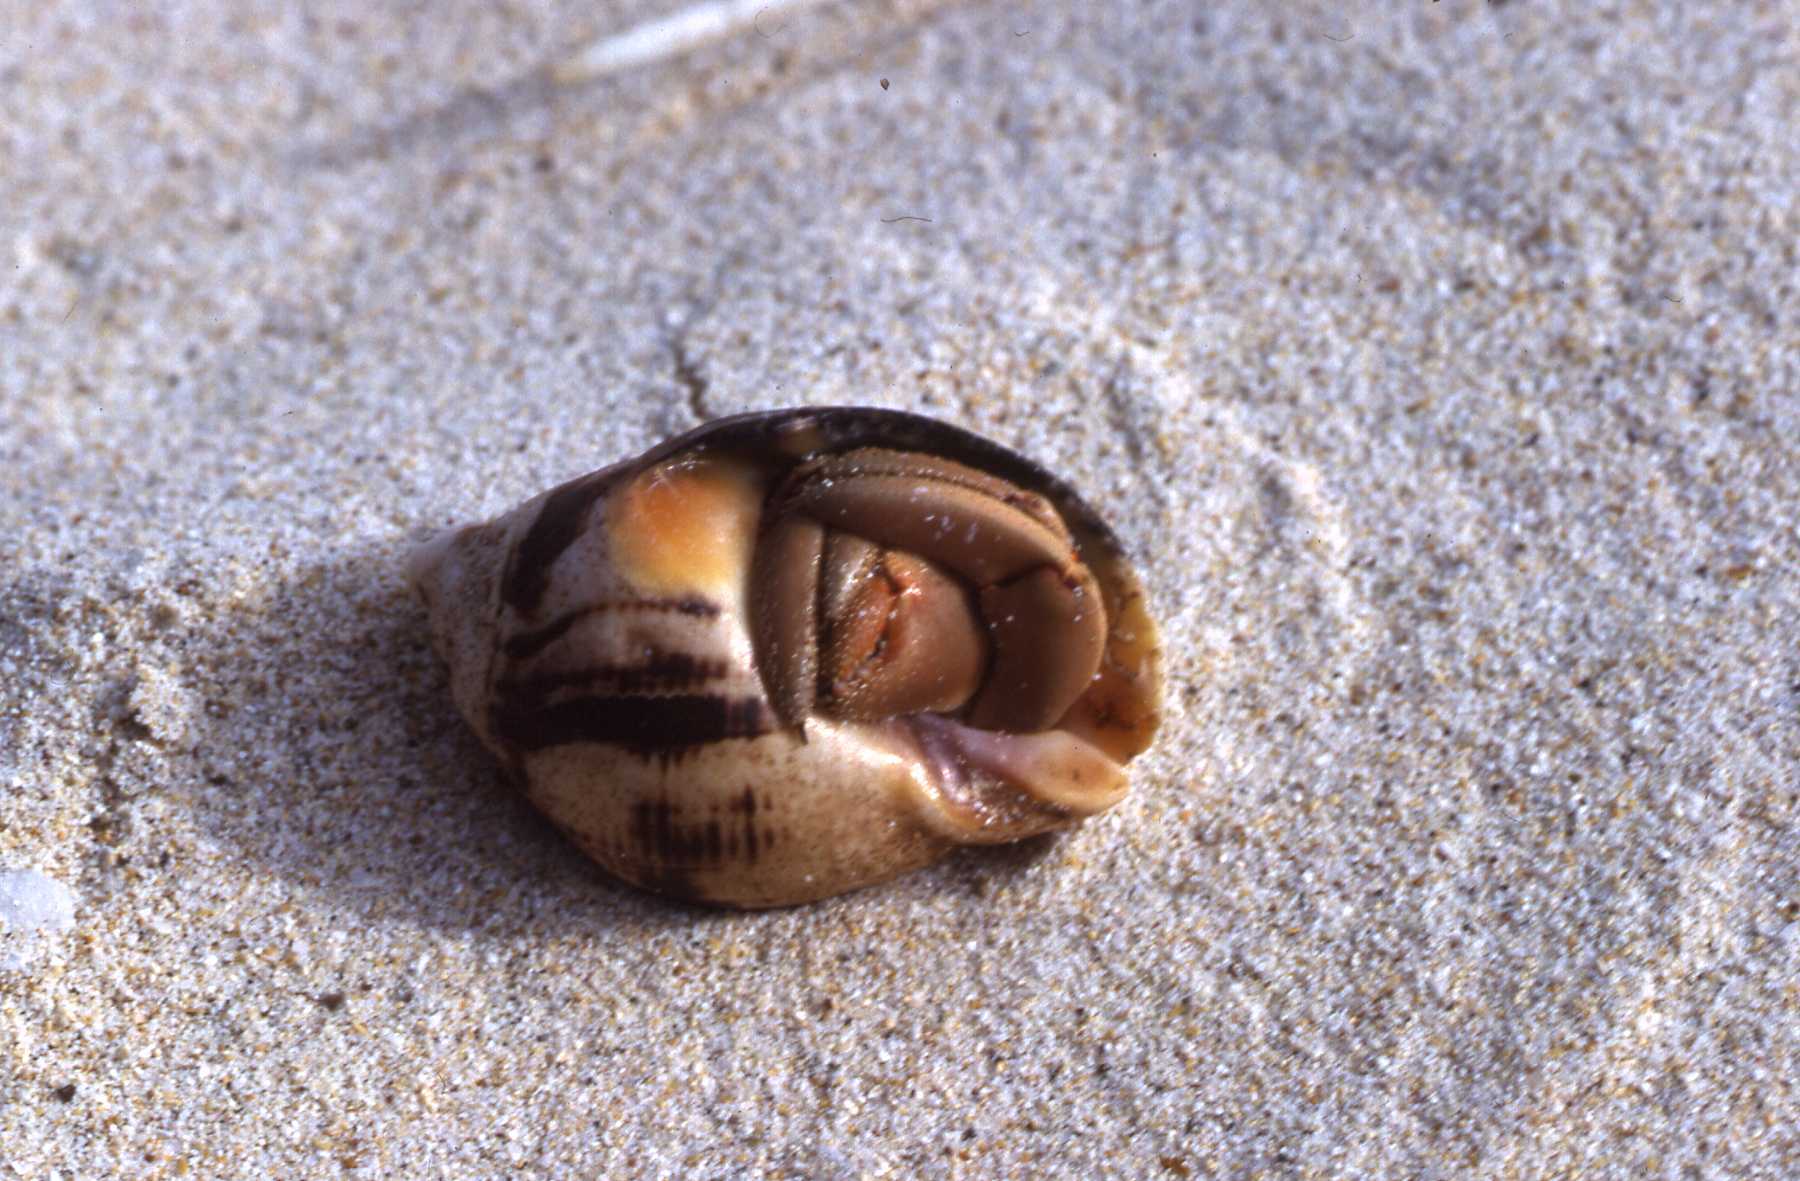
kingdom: Animalia
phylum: Arthropoda
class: Malacostraca
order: Decapoda
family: Coenobitidae
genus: Coenobita
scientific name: Coenobita compressus
